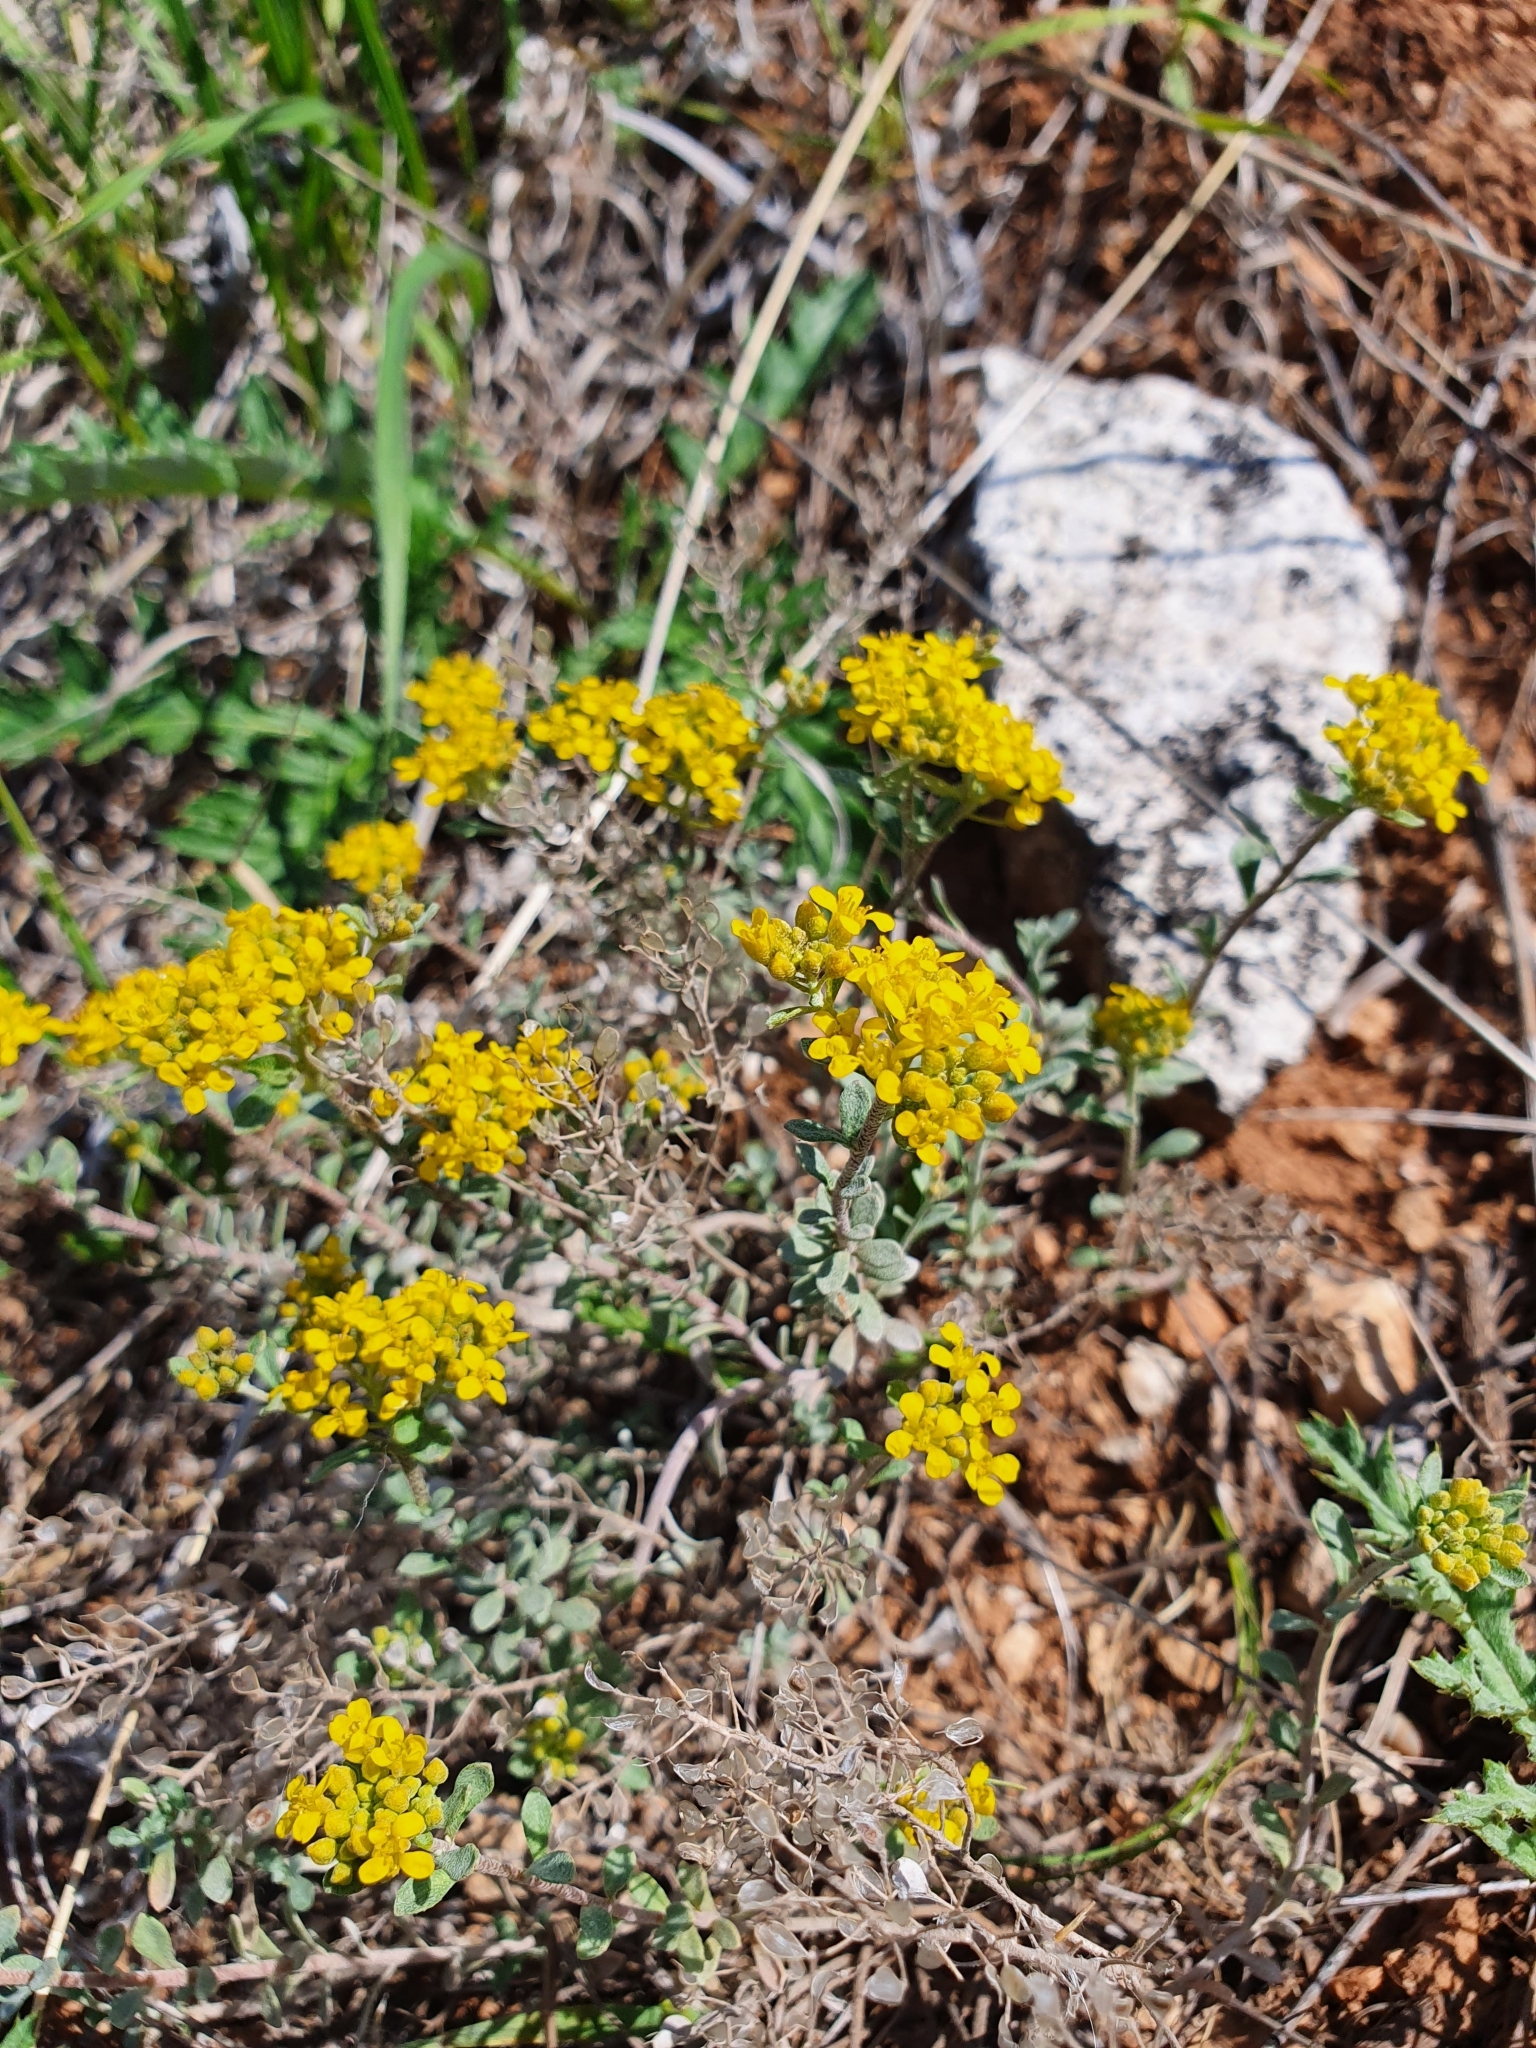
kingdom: Plantae
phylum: Tracheophyta
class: Magnoliopsida
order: Brassicales
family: Brassicaceae
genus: Odontarrhena
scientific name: Odontarrhena tortuosa
